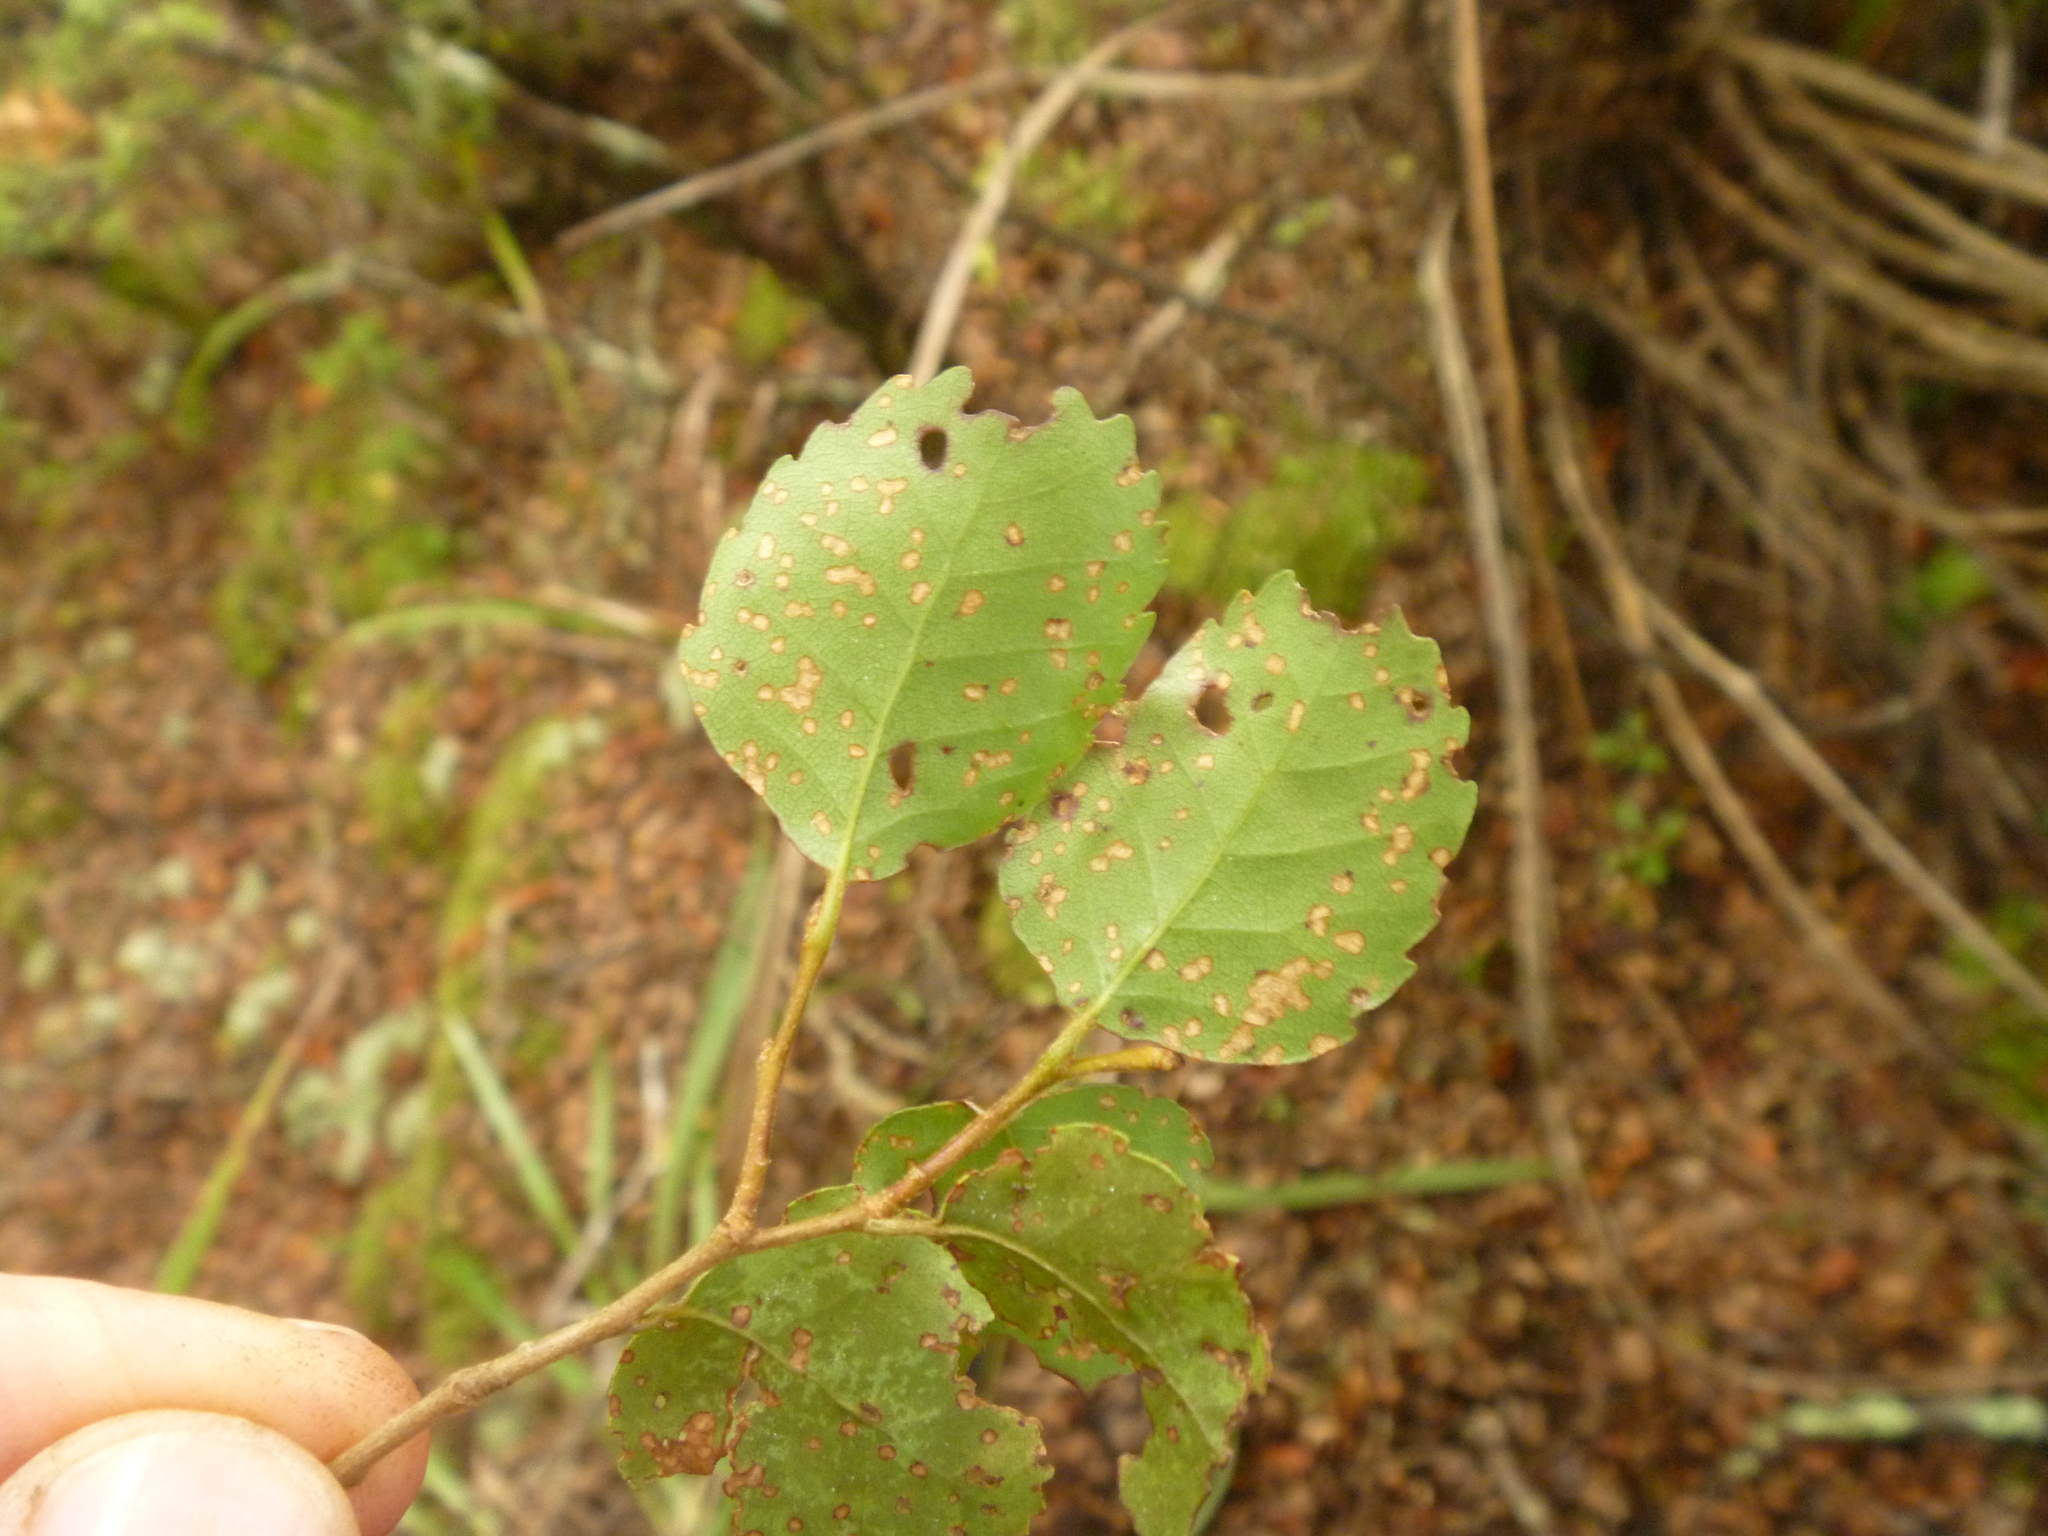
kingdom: Plantae
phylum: Tracheophyta
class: Magnoliopsida
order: Fagales
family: Nothofagaceae
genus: Nothofagus
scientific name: Nothofagus truncata
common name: Hard beech
